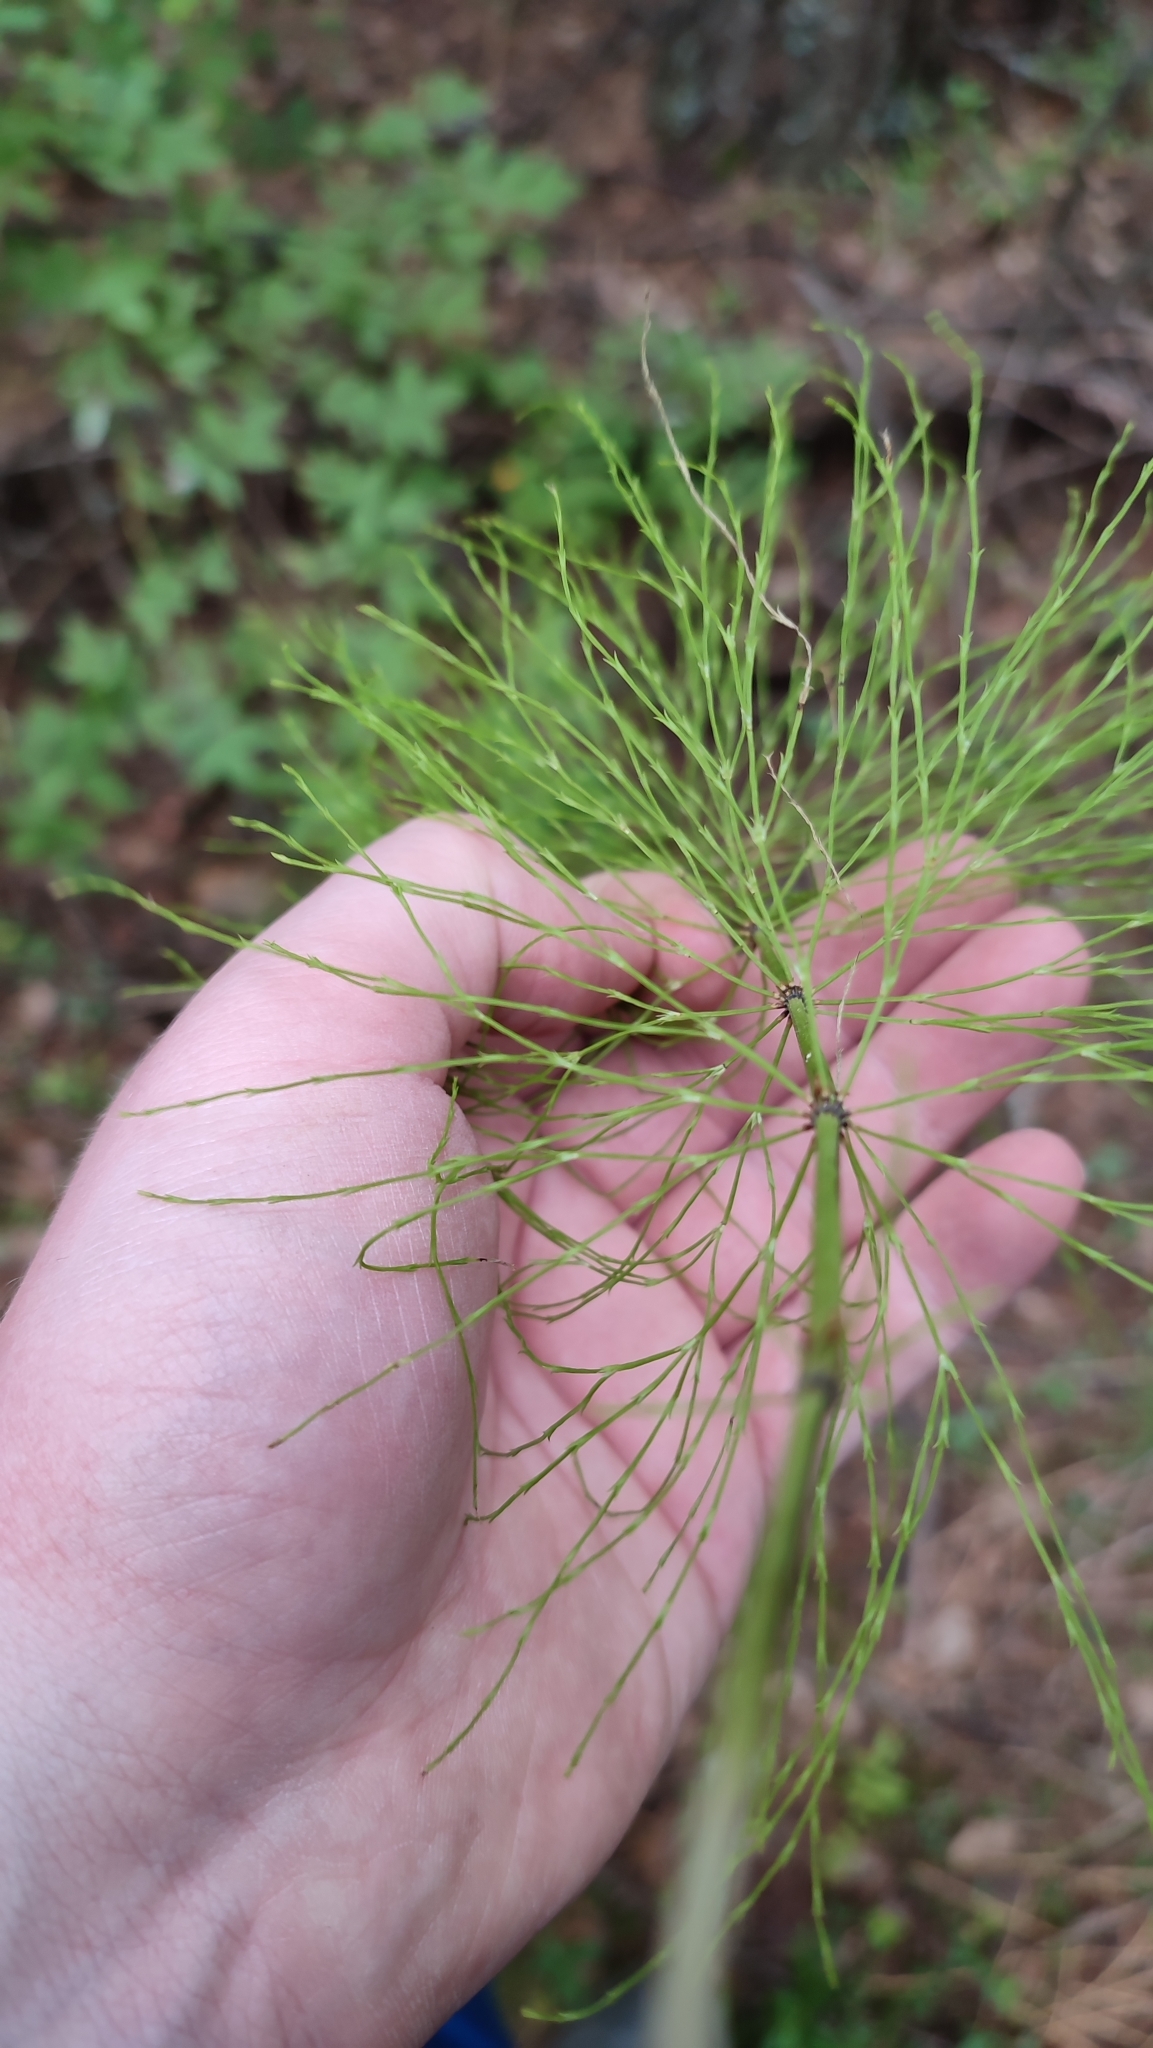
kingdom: Plantae
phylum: Tracheophyta
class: Polypodiopsida
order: Equisetales
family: Equisetaceae
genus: Equisetum
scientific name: Equisetum sylvaticum
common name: Wood horsetail
